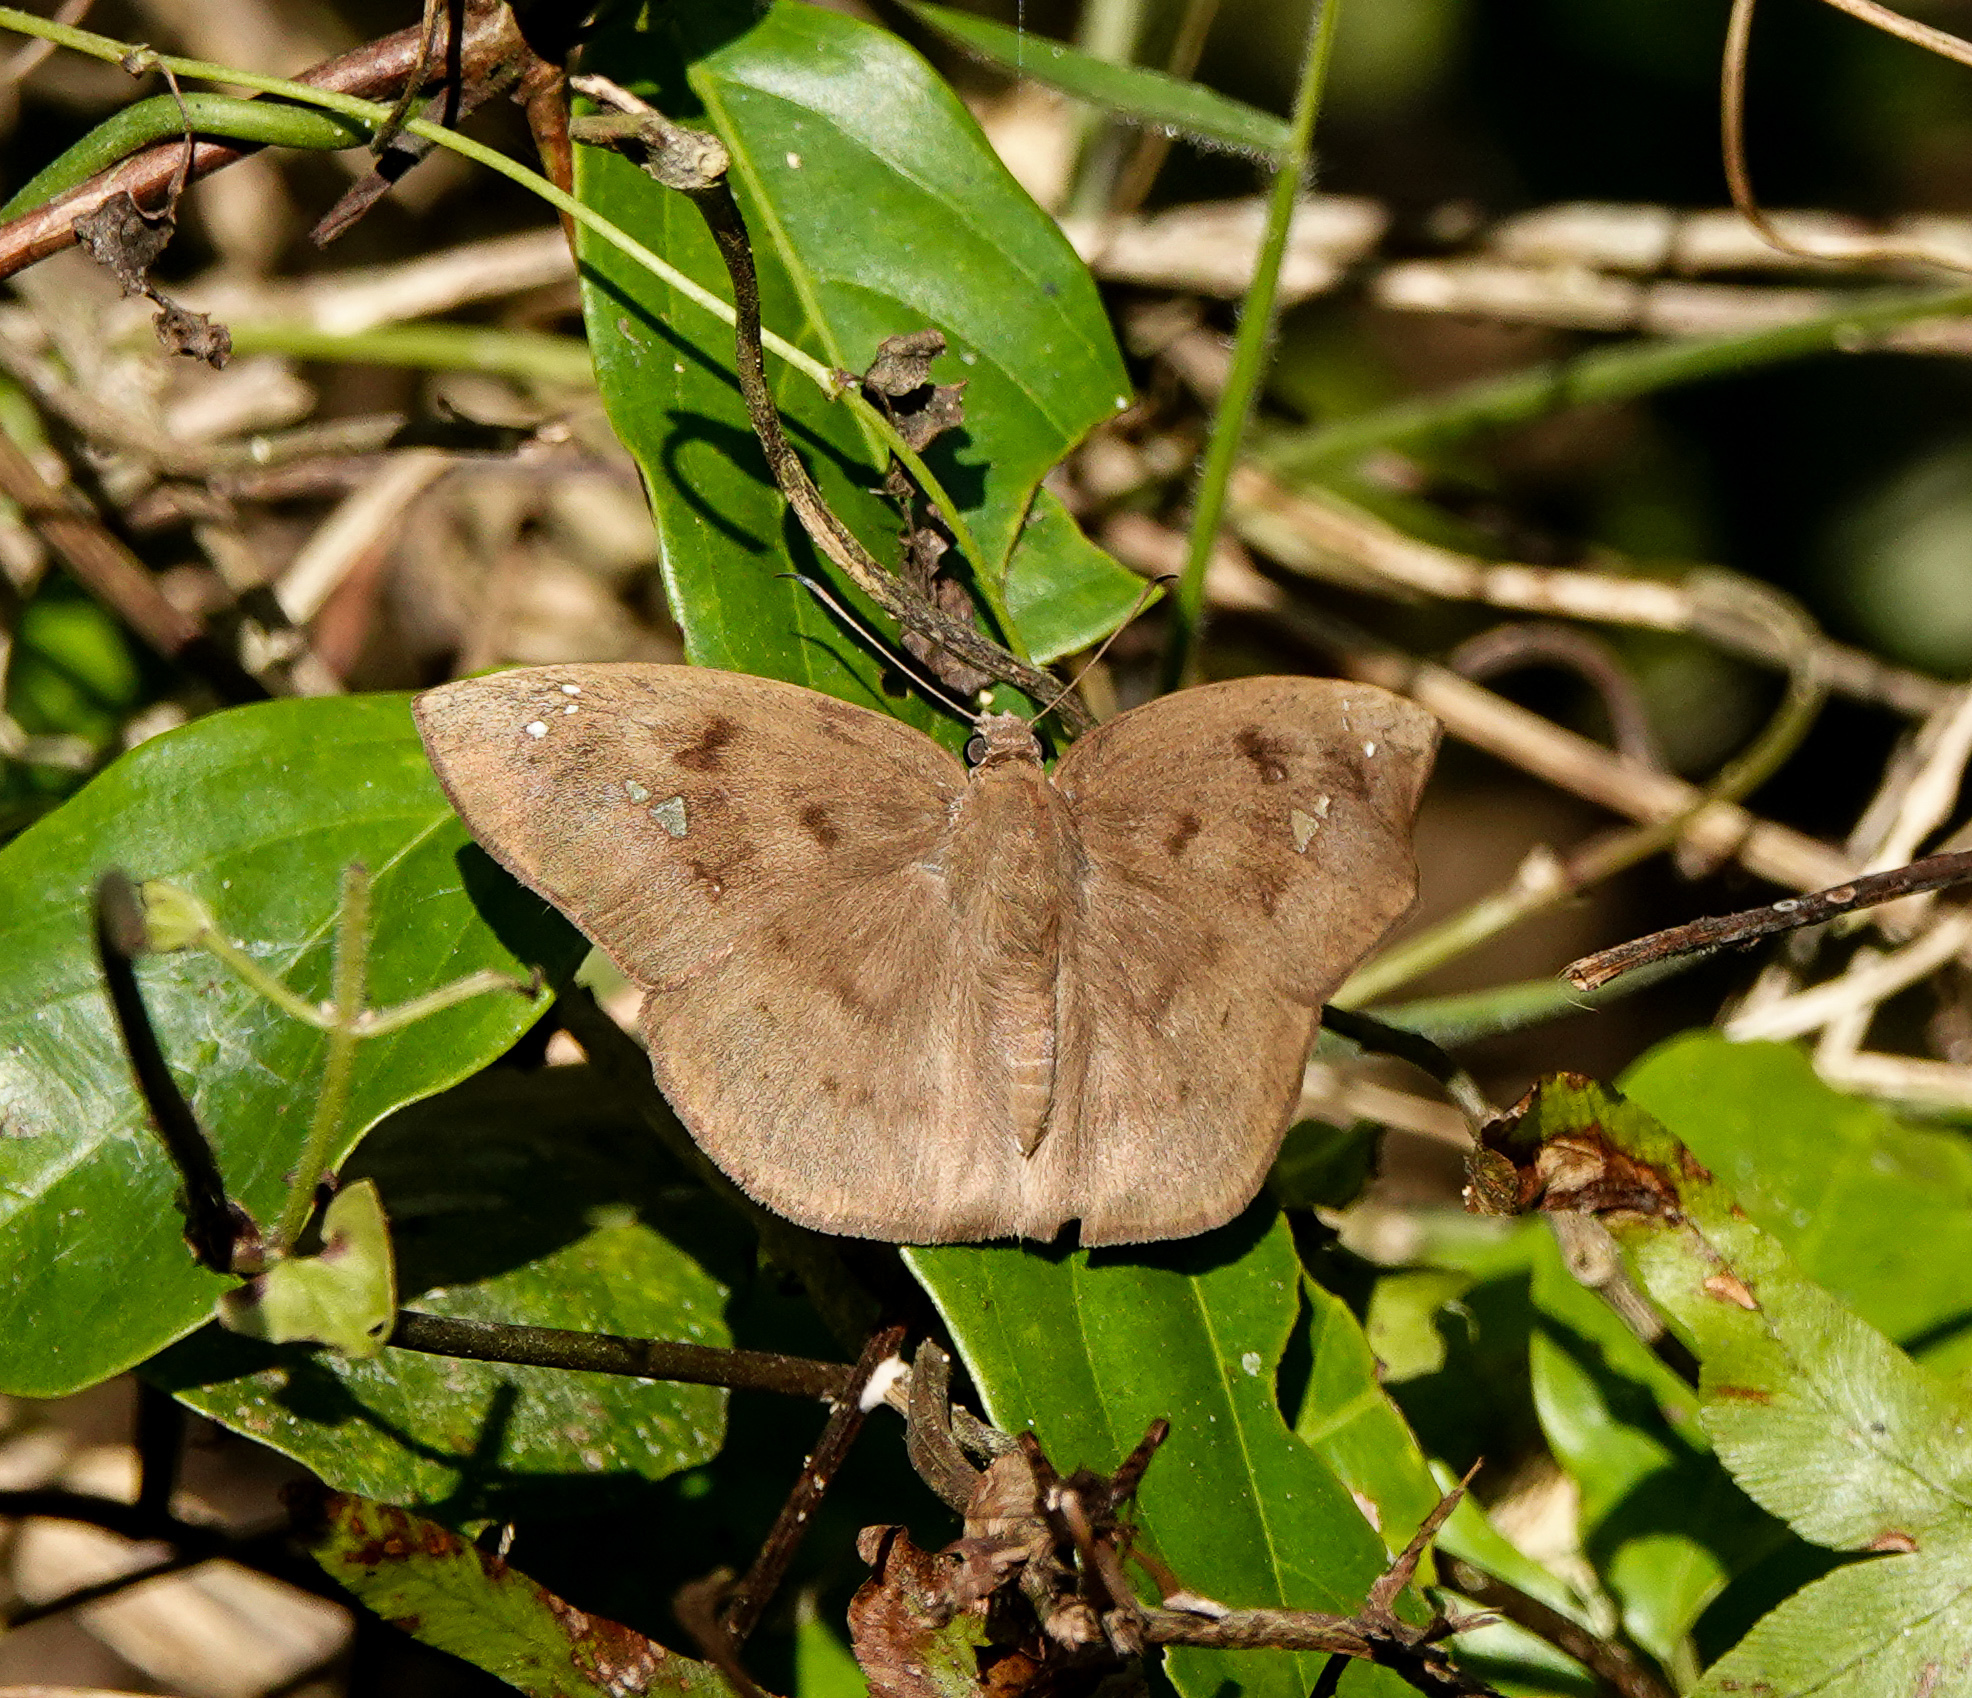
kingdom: Animalia
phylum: Arthropoda
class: Insecta
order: Lepidoptera
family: Hesperiidae
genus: Tagiades
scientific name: Tagiades japetus
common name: Pied flat
